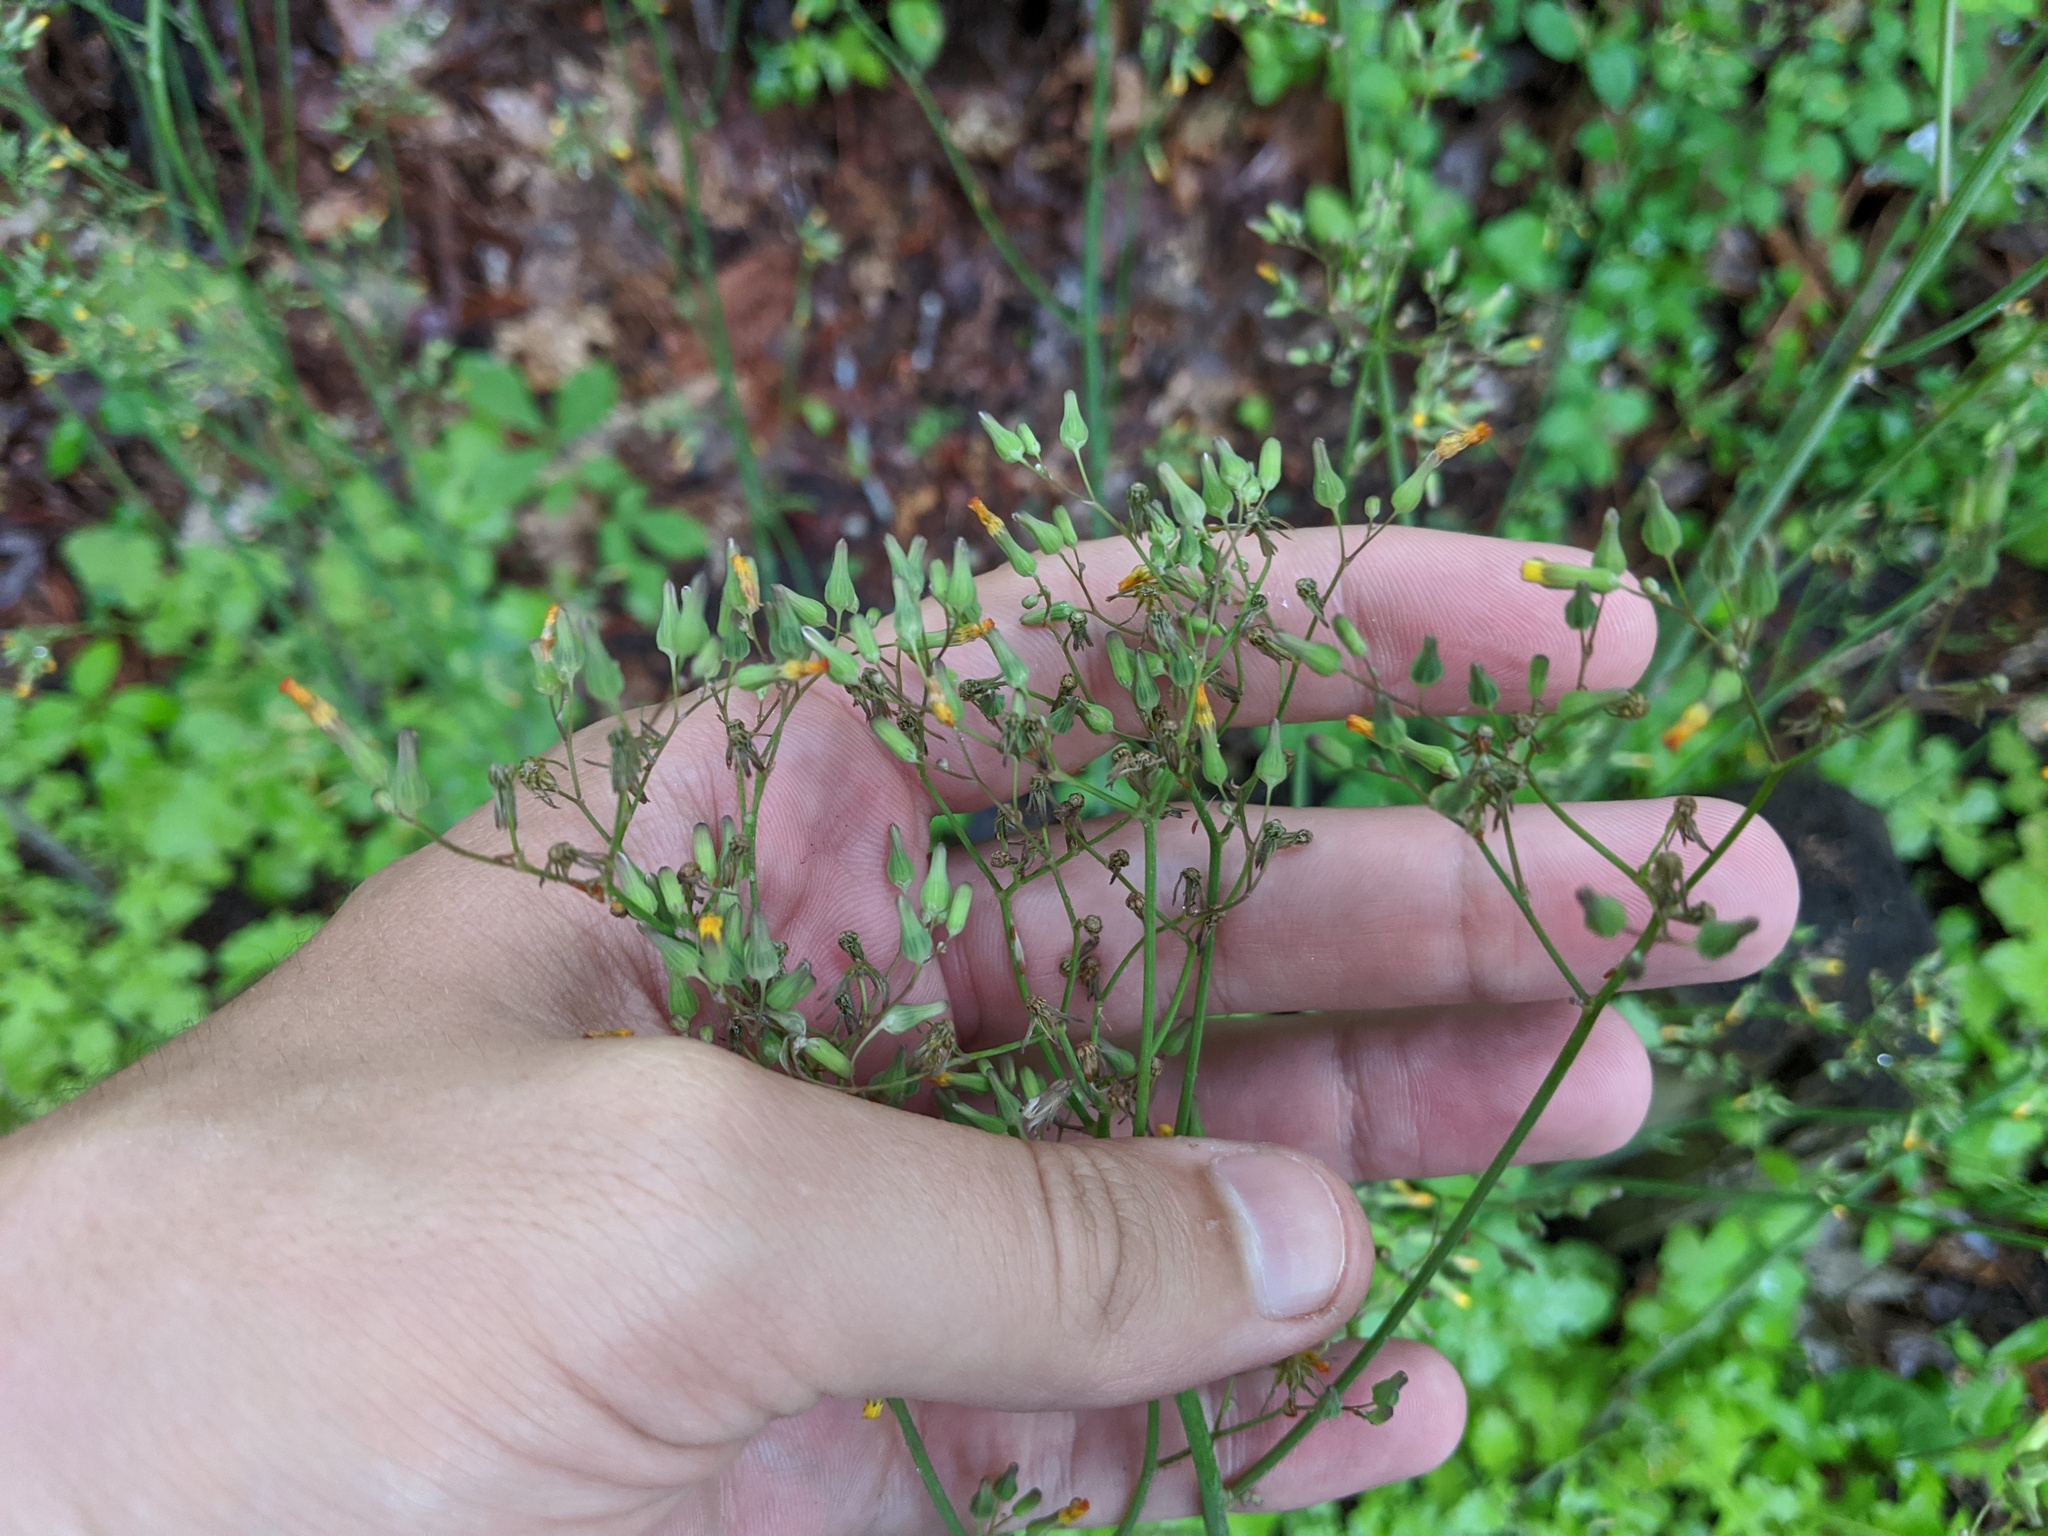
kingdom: Plantae
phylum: Tracheophyta
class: Magnoliopsida
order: Asterales
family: Asteraceae
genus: Youngia
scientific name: Youngia japonica
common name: Oriental false hawksbeard
